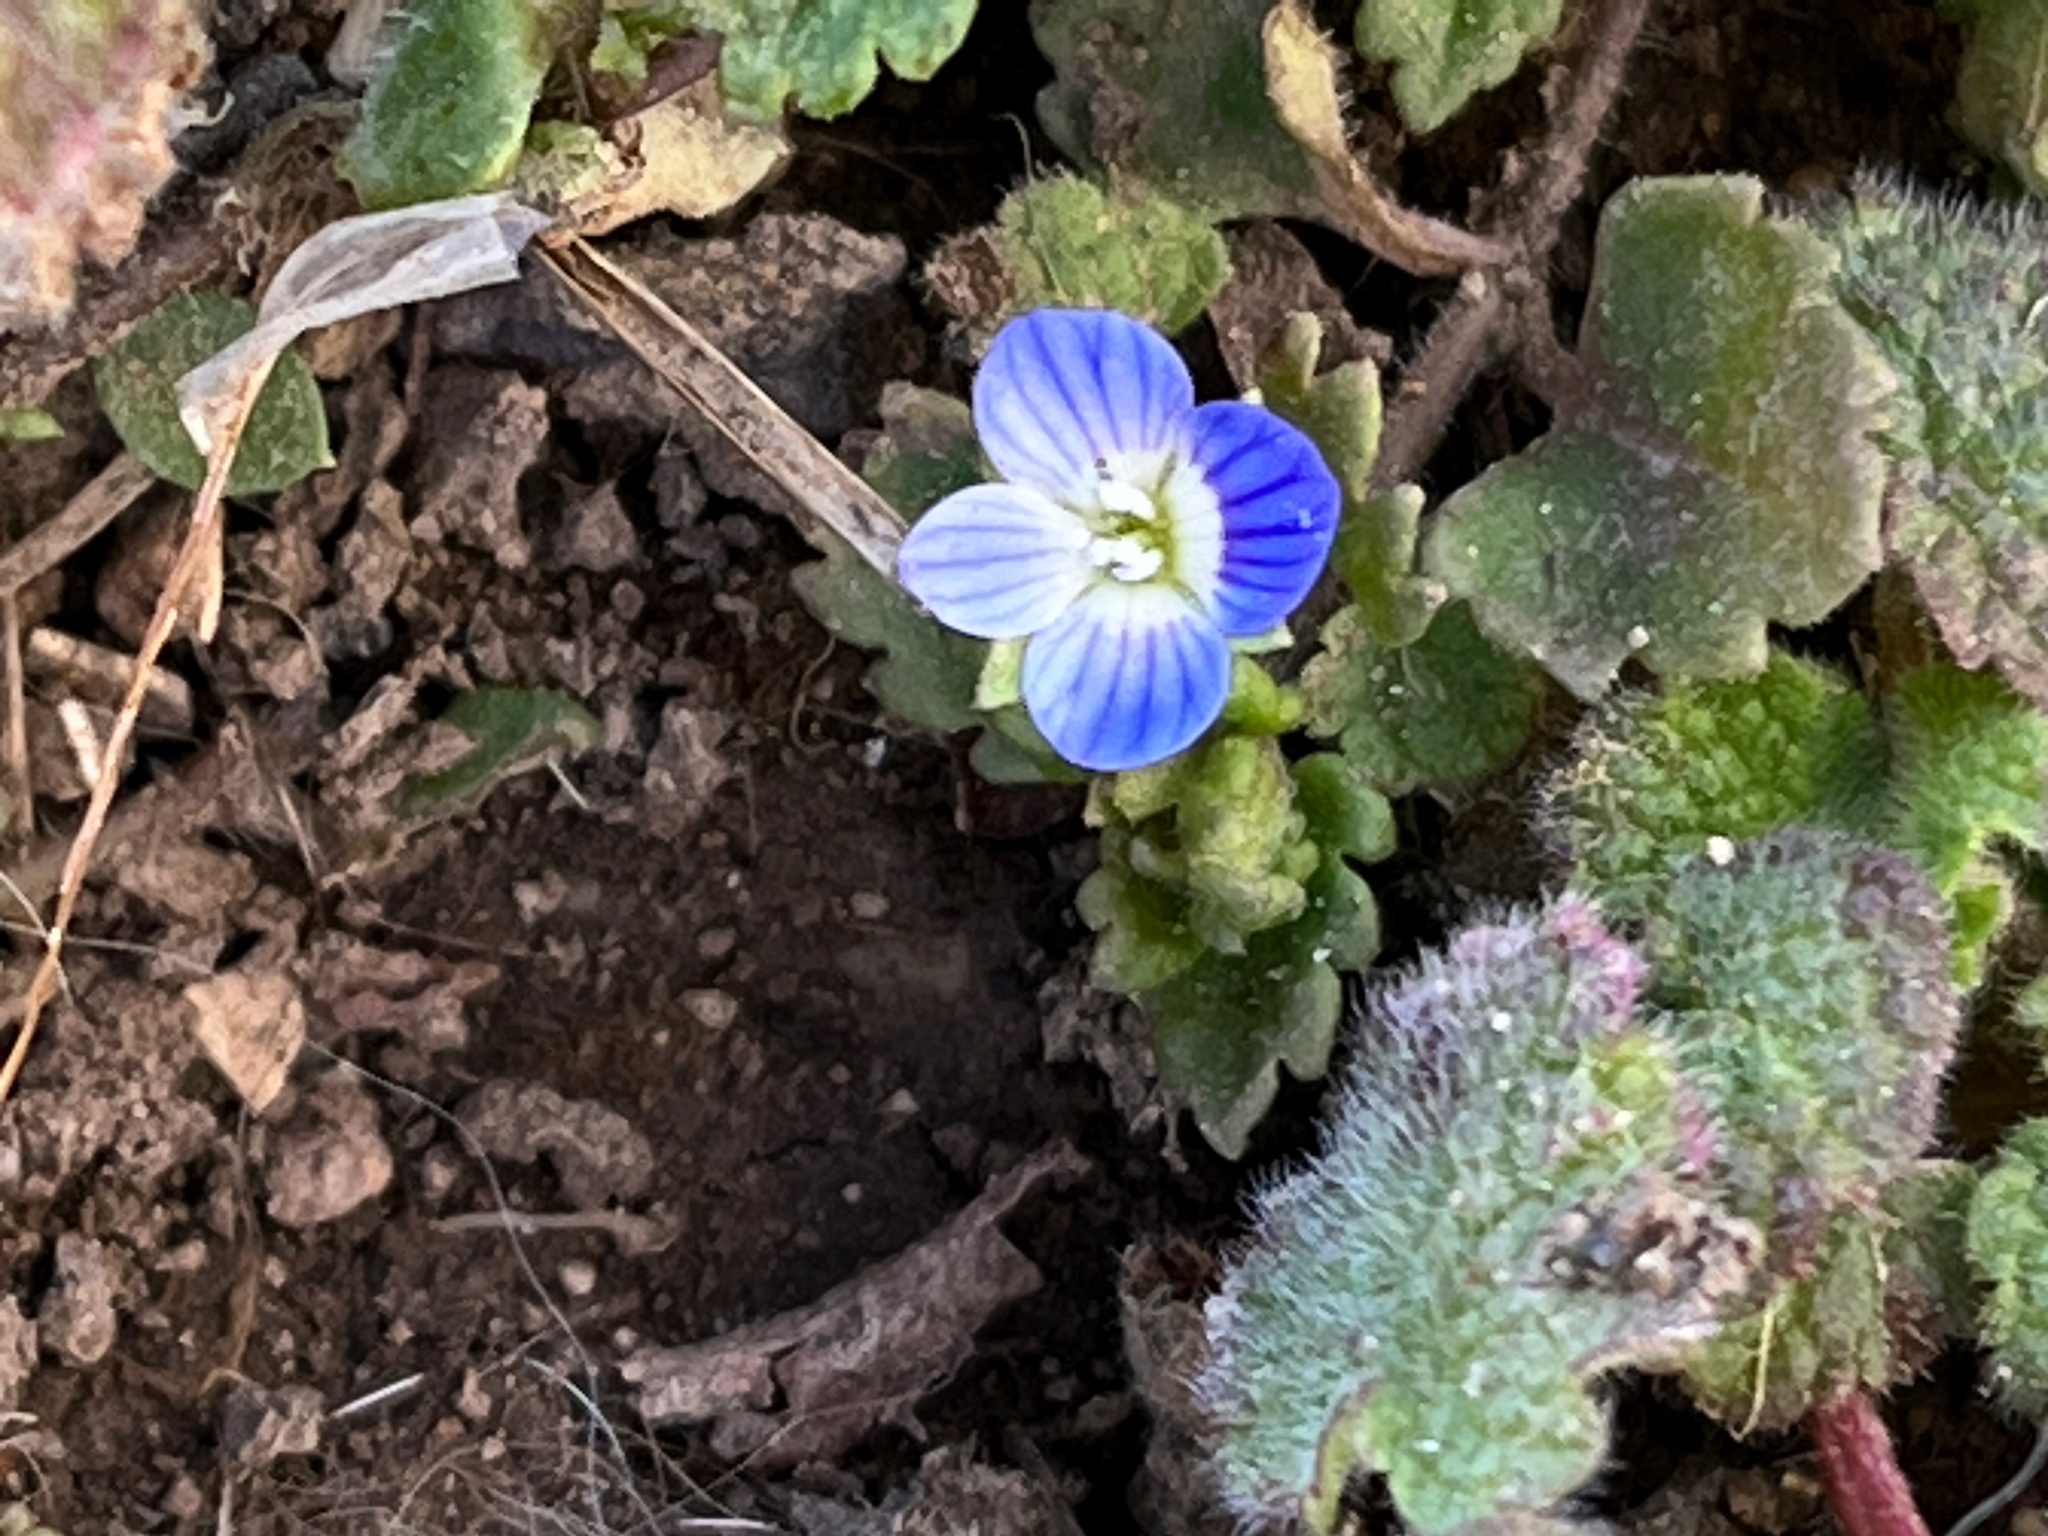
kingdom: Plantae
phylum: Tracheophyta
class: Magnoliopsida
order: Lamiales
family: Plantaginaceae
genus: Veronica
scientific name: Veronica polita
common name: Grey field-speedwell
